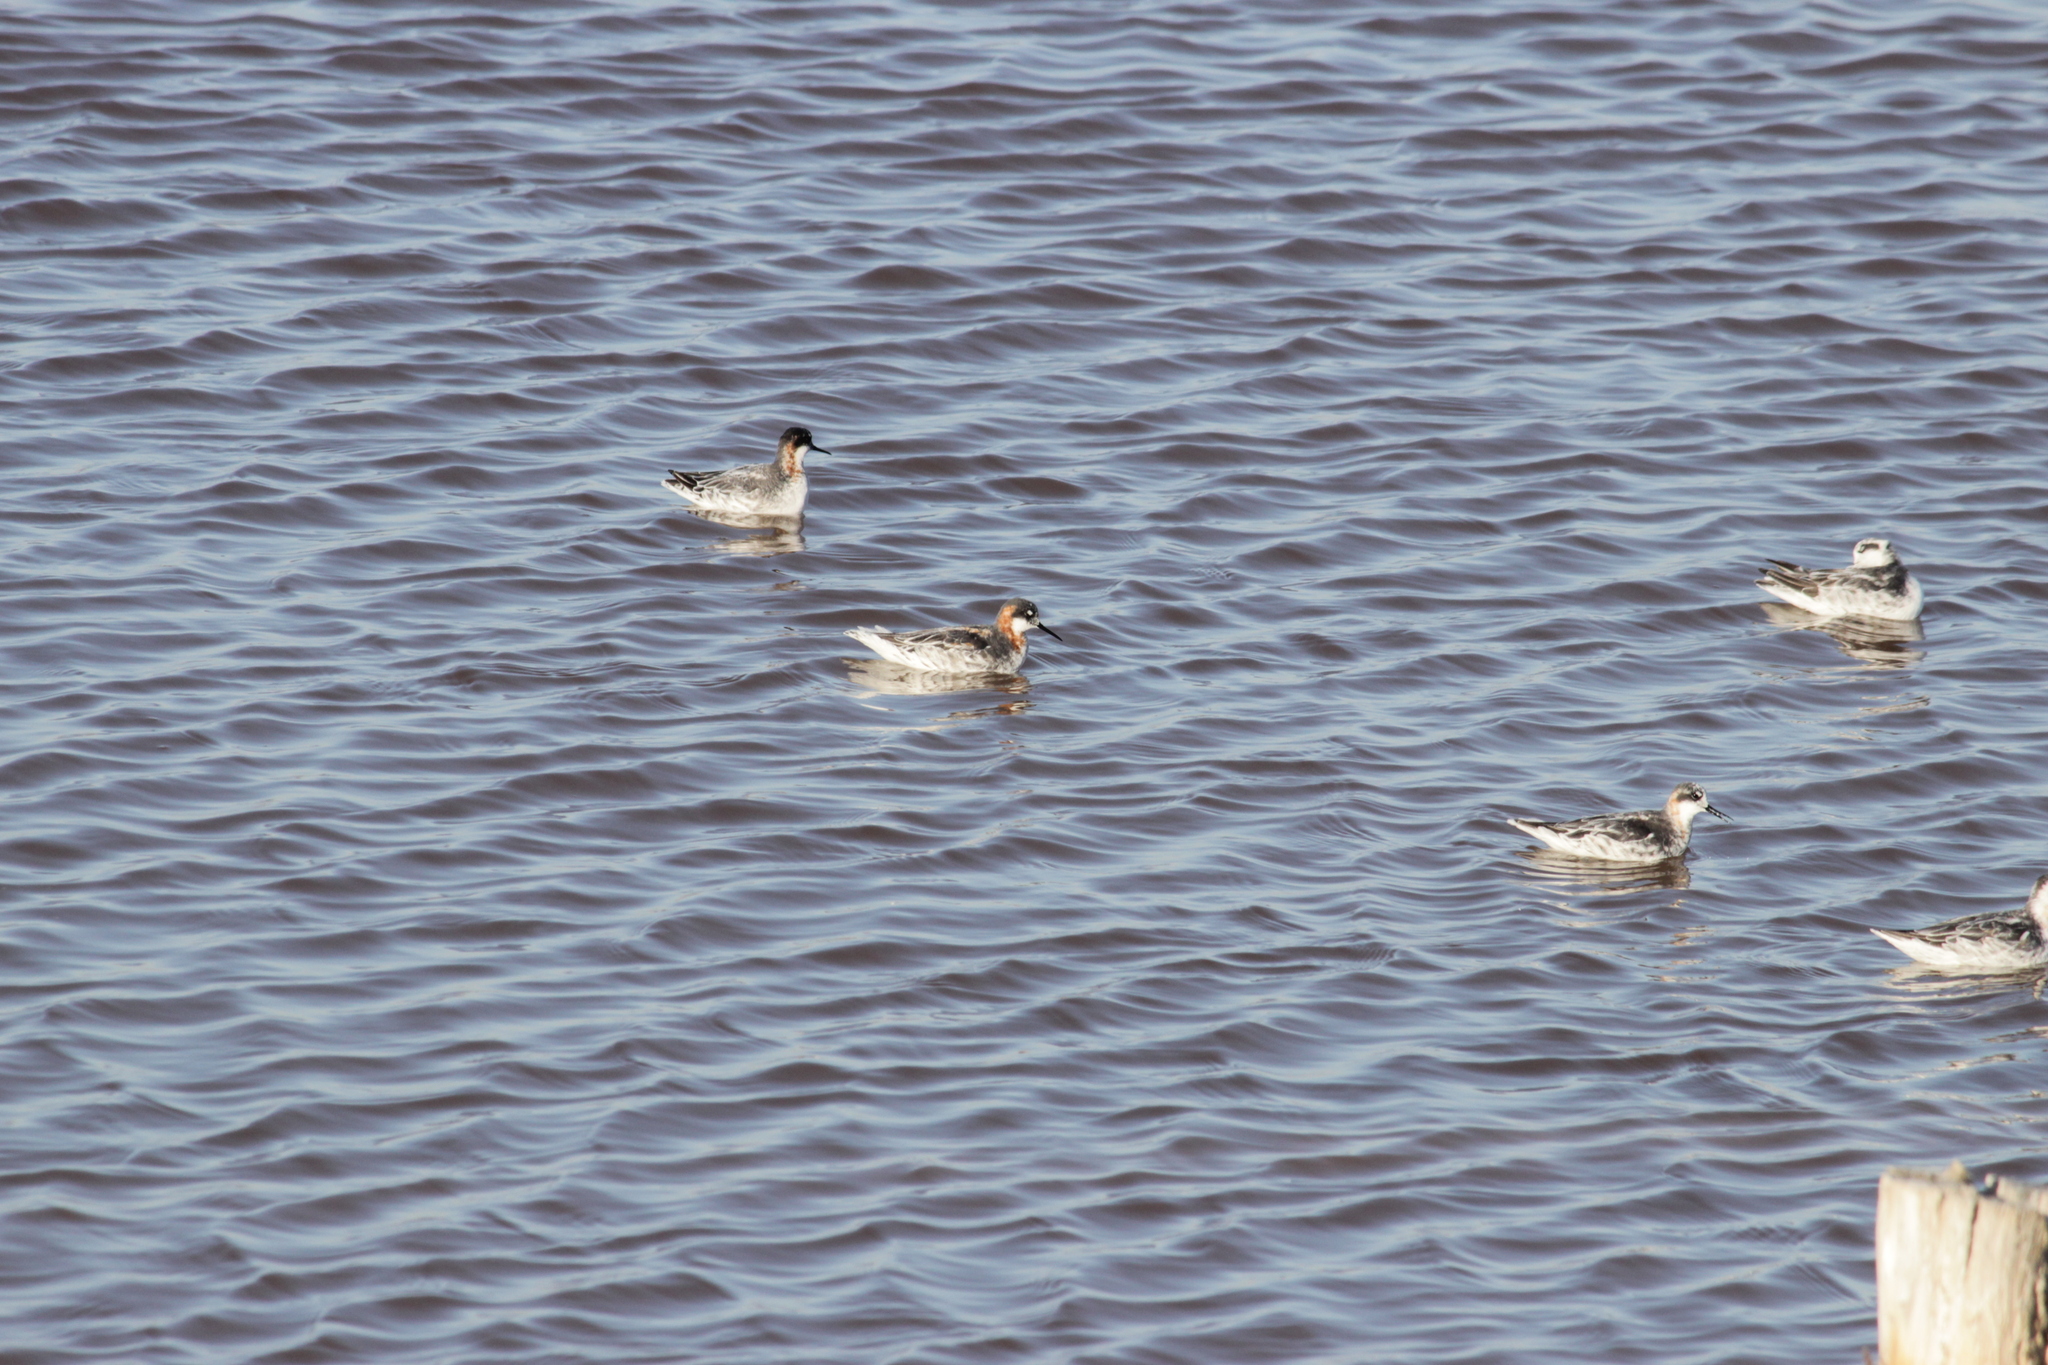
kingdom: Animalia
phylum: Chordata
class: Aves
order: Charadriiformes
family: Scolopacidae
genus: Phalaropus
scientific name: Phalaropus lobatus
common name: Red-necked phalarope
